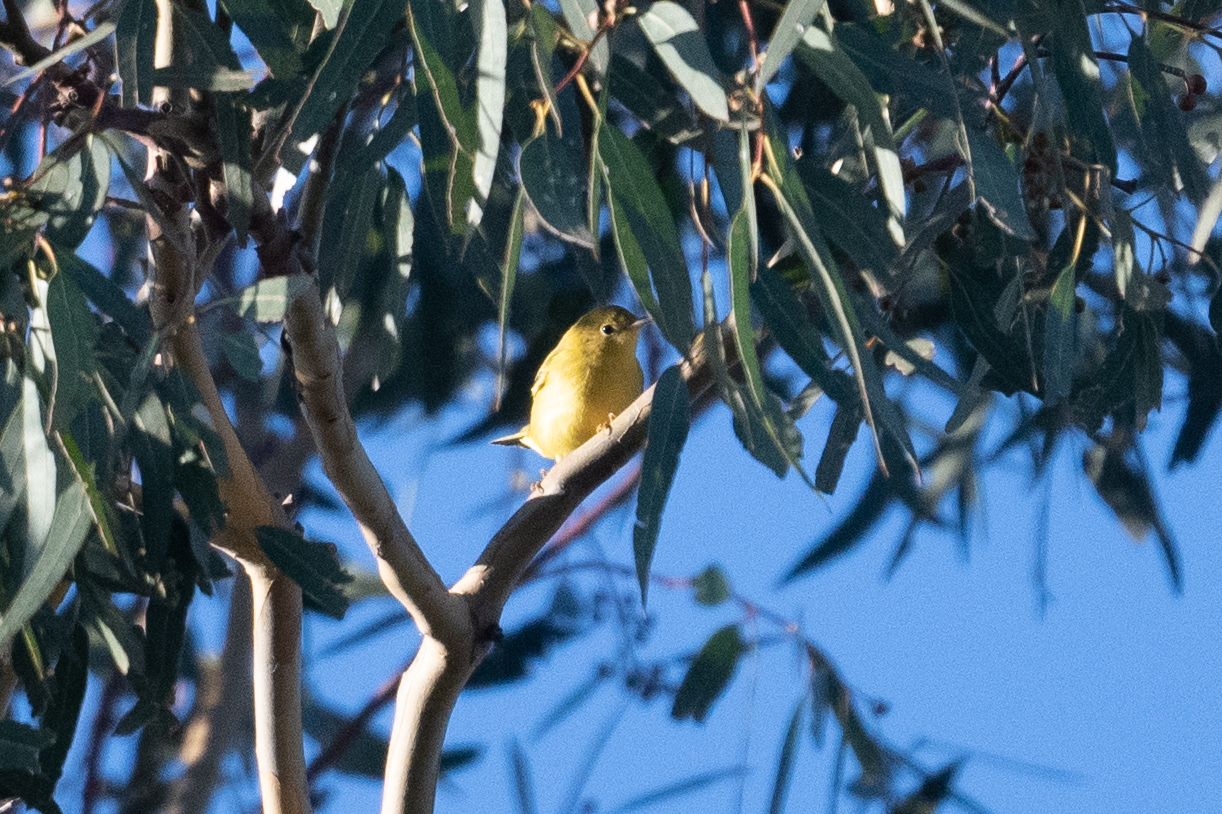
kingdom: Animalia
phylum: Chordata
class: Aves
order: Passeriformes
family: Parulidae
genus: Setophaga
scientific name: Setophaga petechia
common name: Yellow warbler
